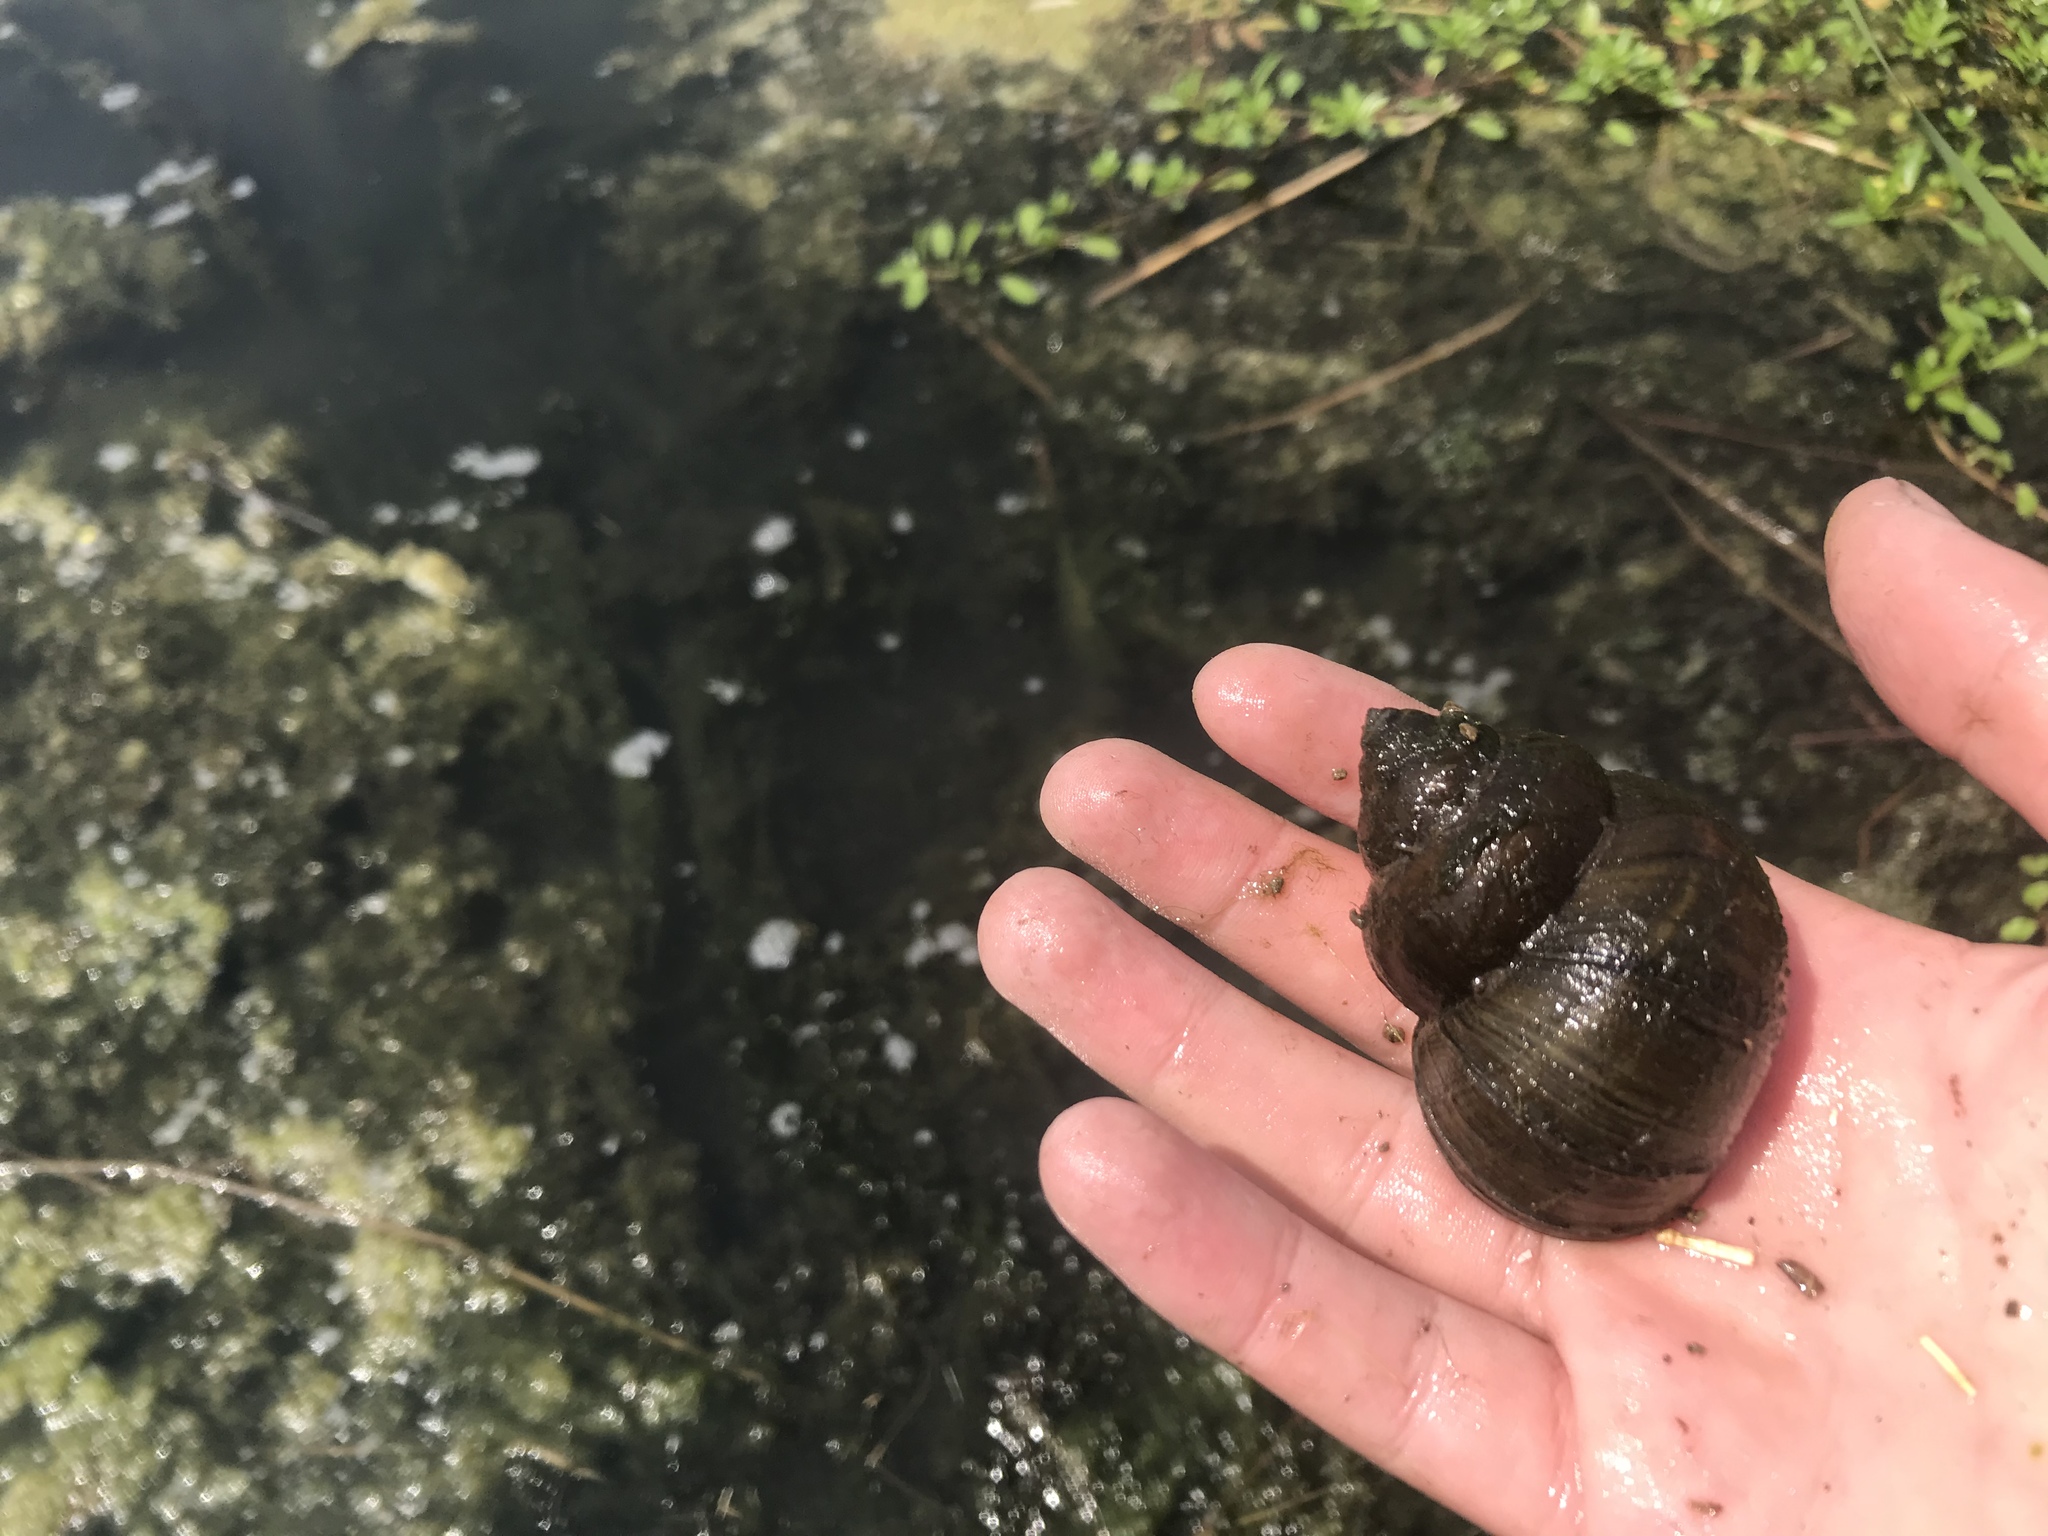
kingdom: Animalia
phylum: Mollusca
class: Gastropoda
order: Architaenioglossa
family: Viviparidae
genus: Cipangopaludina
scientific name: Cipangopaludina chinensis
